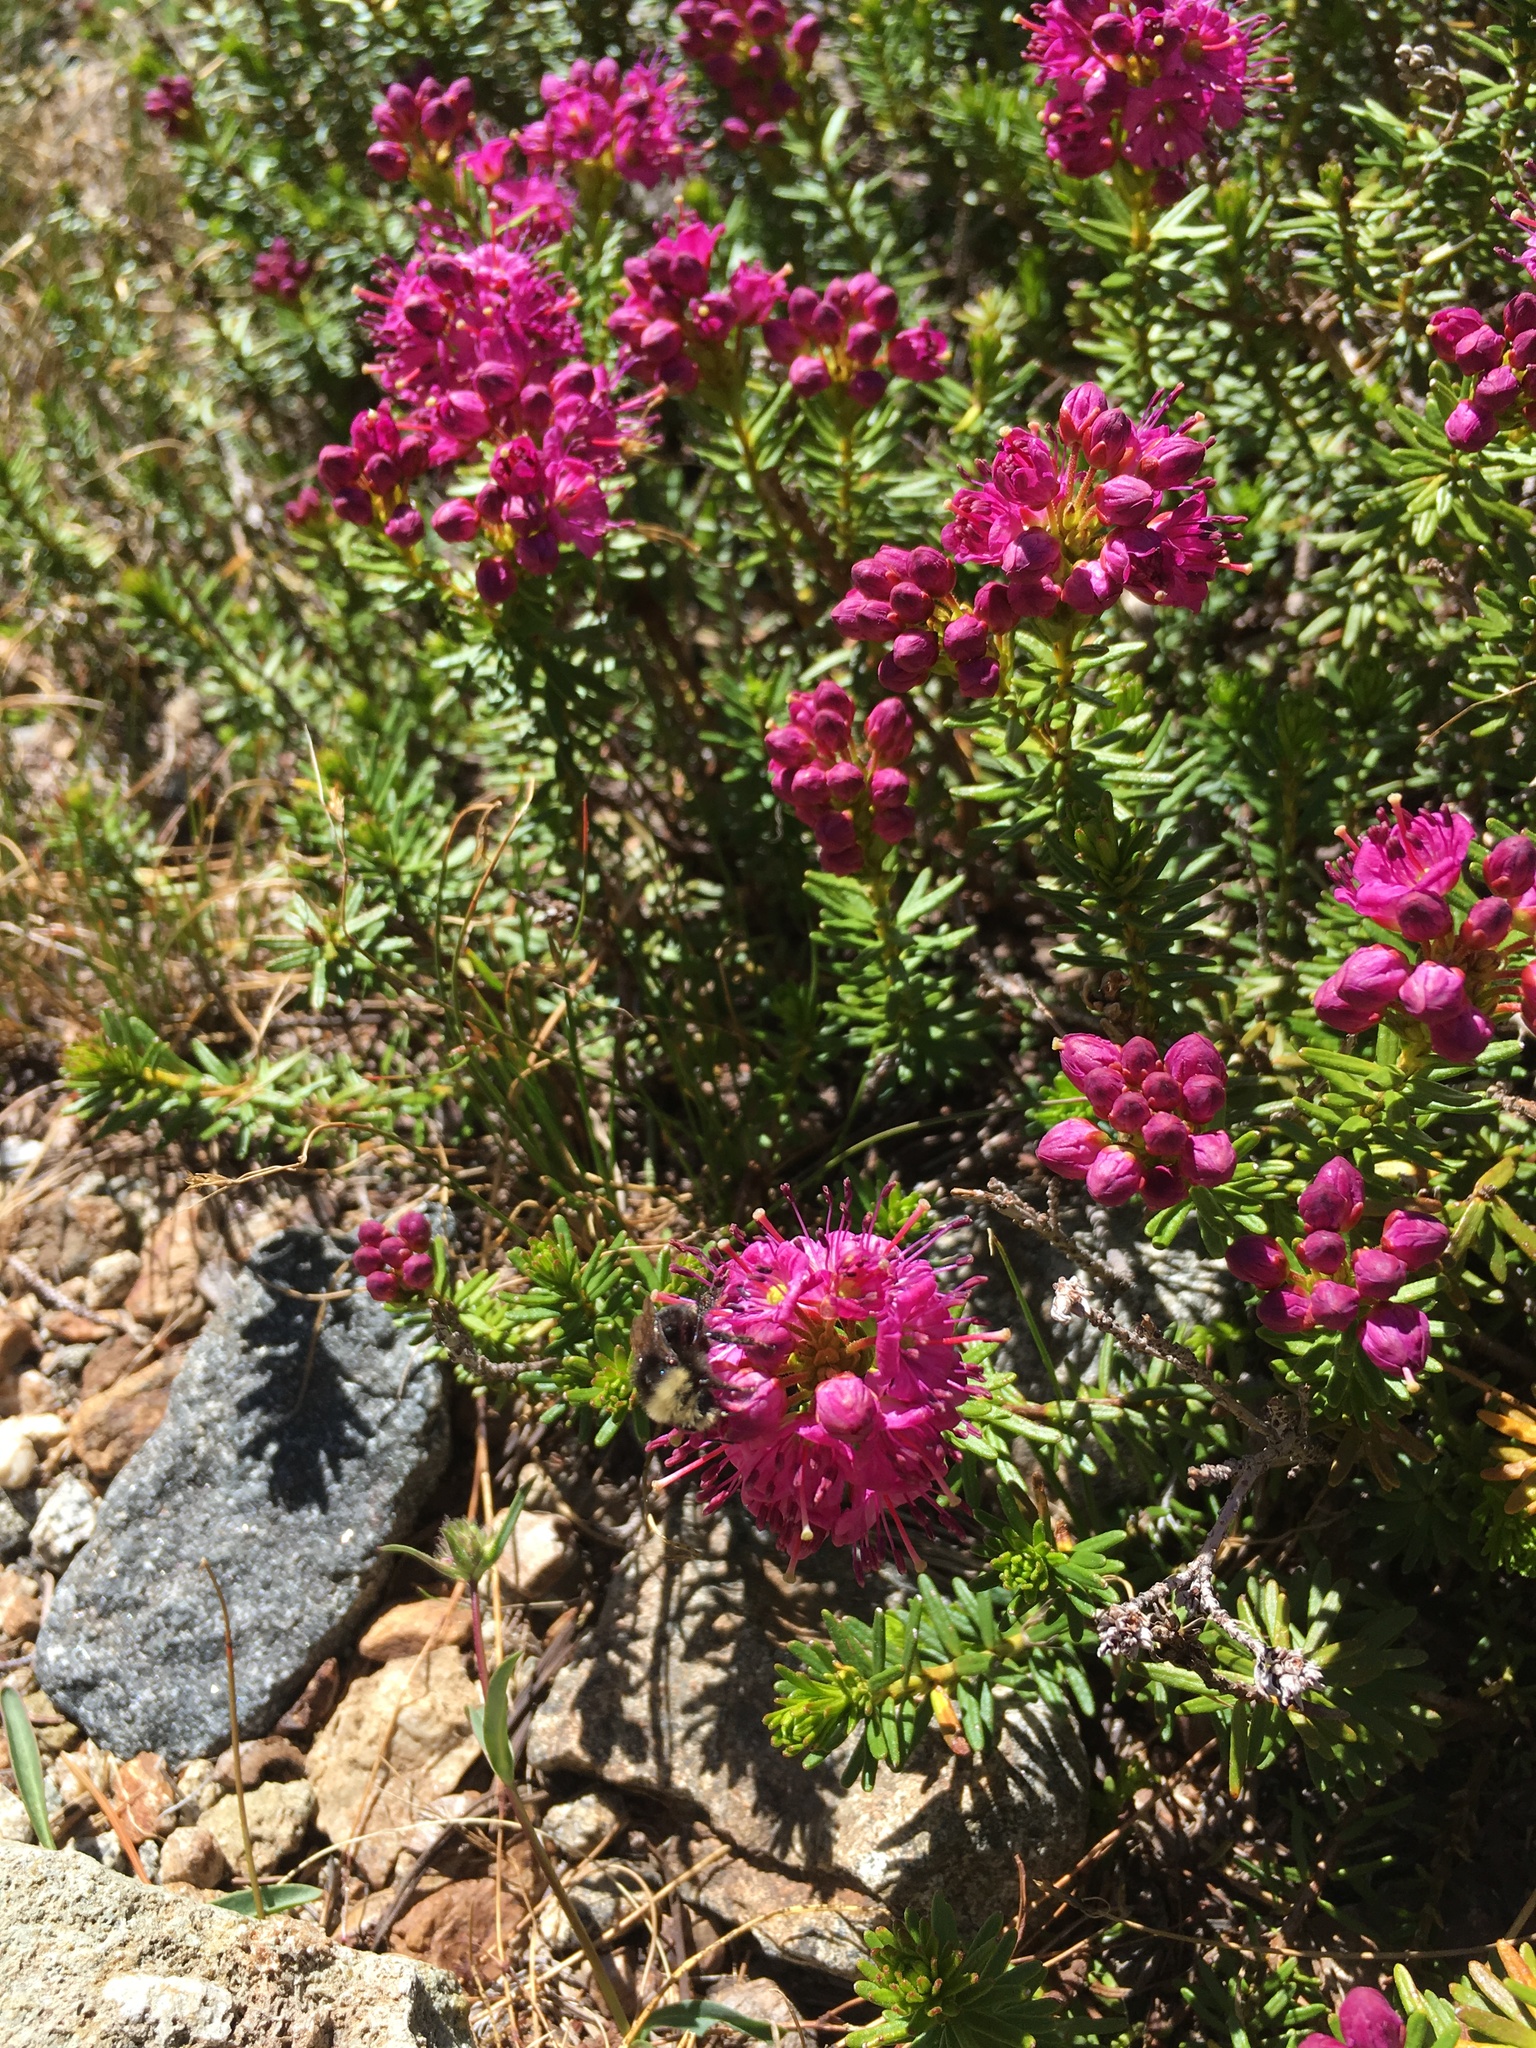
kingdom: Animalia
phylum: Arthropoda
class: Insecta
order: Hymenoptera
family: Apidae
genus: Bombus
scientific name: Bombus vosnesenskii
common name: Vosnesensky bumble bee
